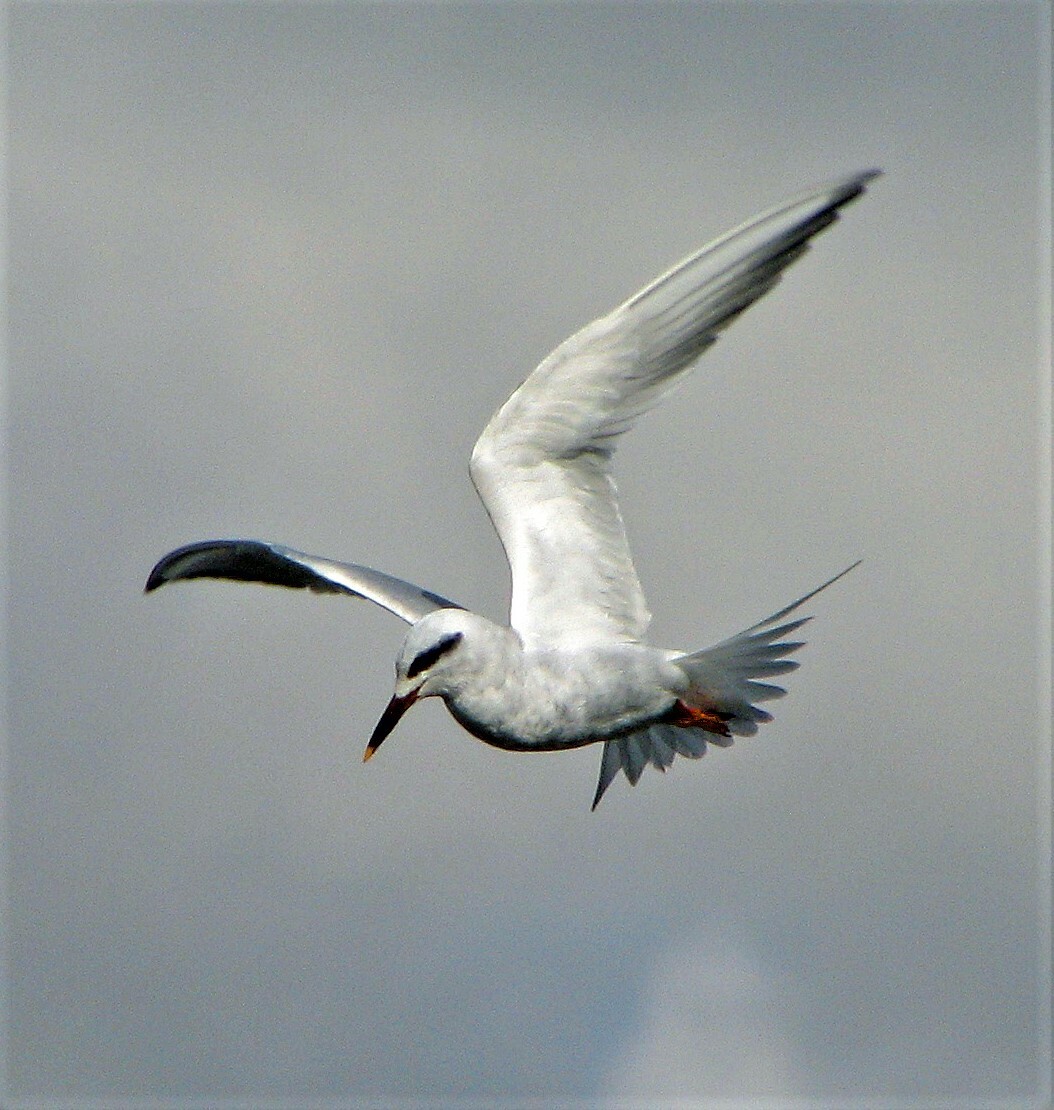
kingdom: Animalia
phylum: Chordata
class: Aves
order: Charadriiformes
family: Laridae
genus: Sterna
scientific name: Sterna trudeaui
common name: Snowy-crowned tern
